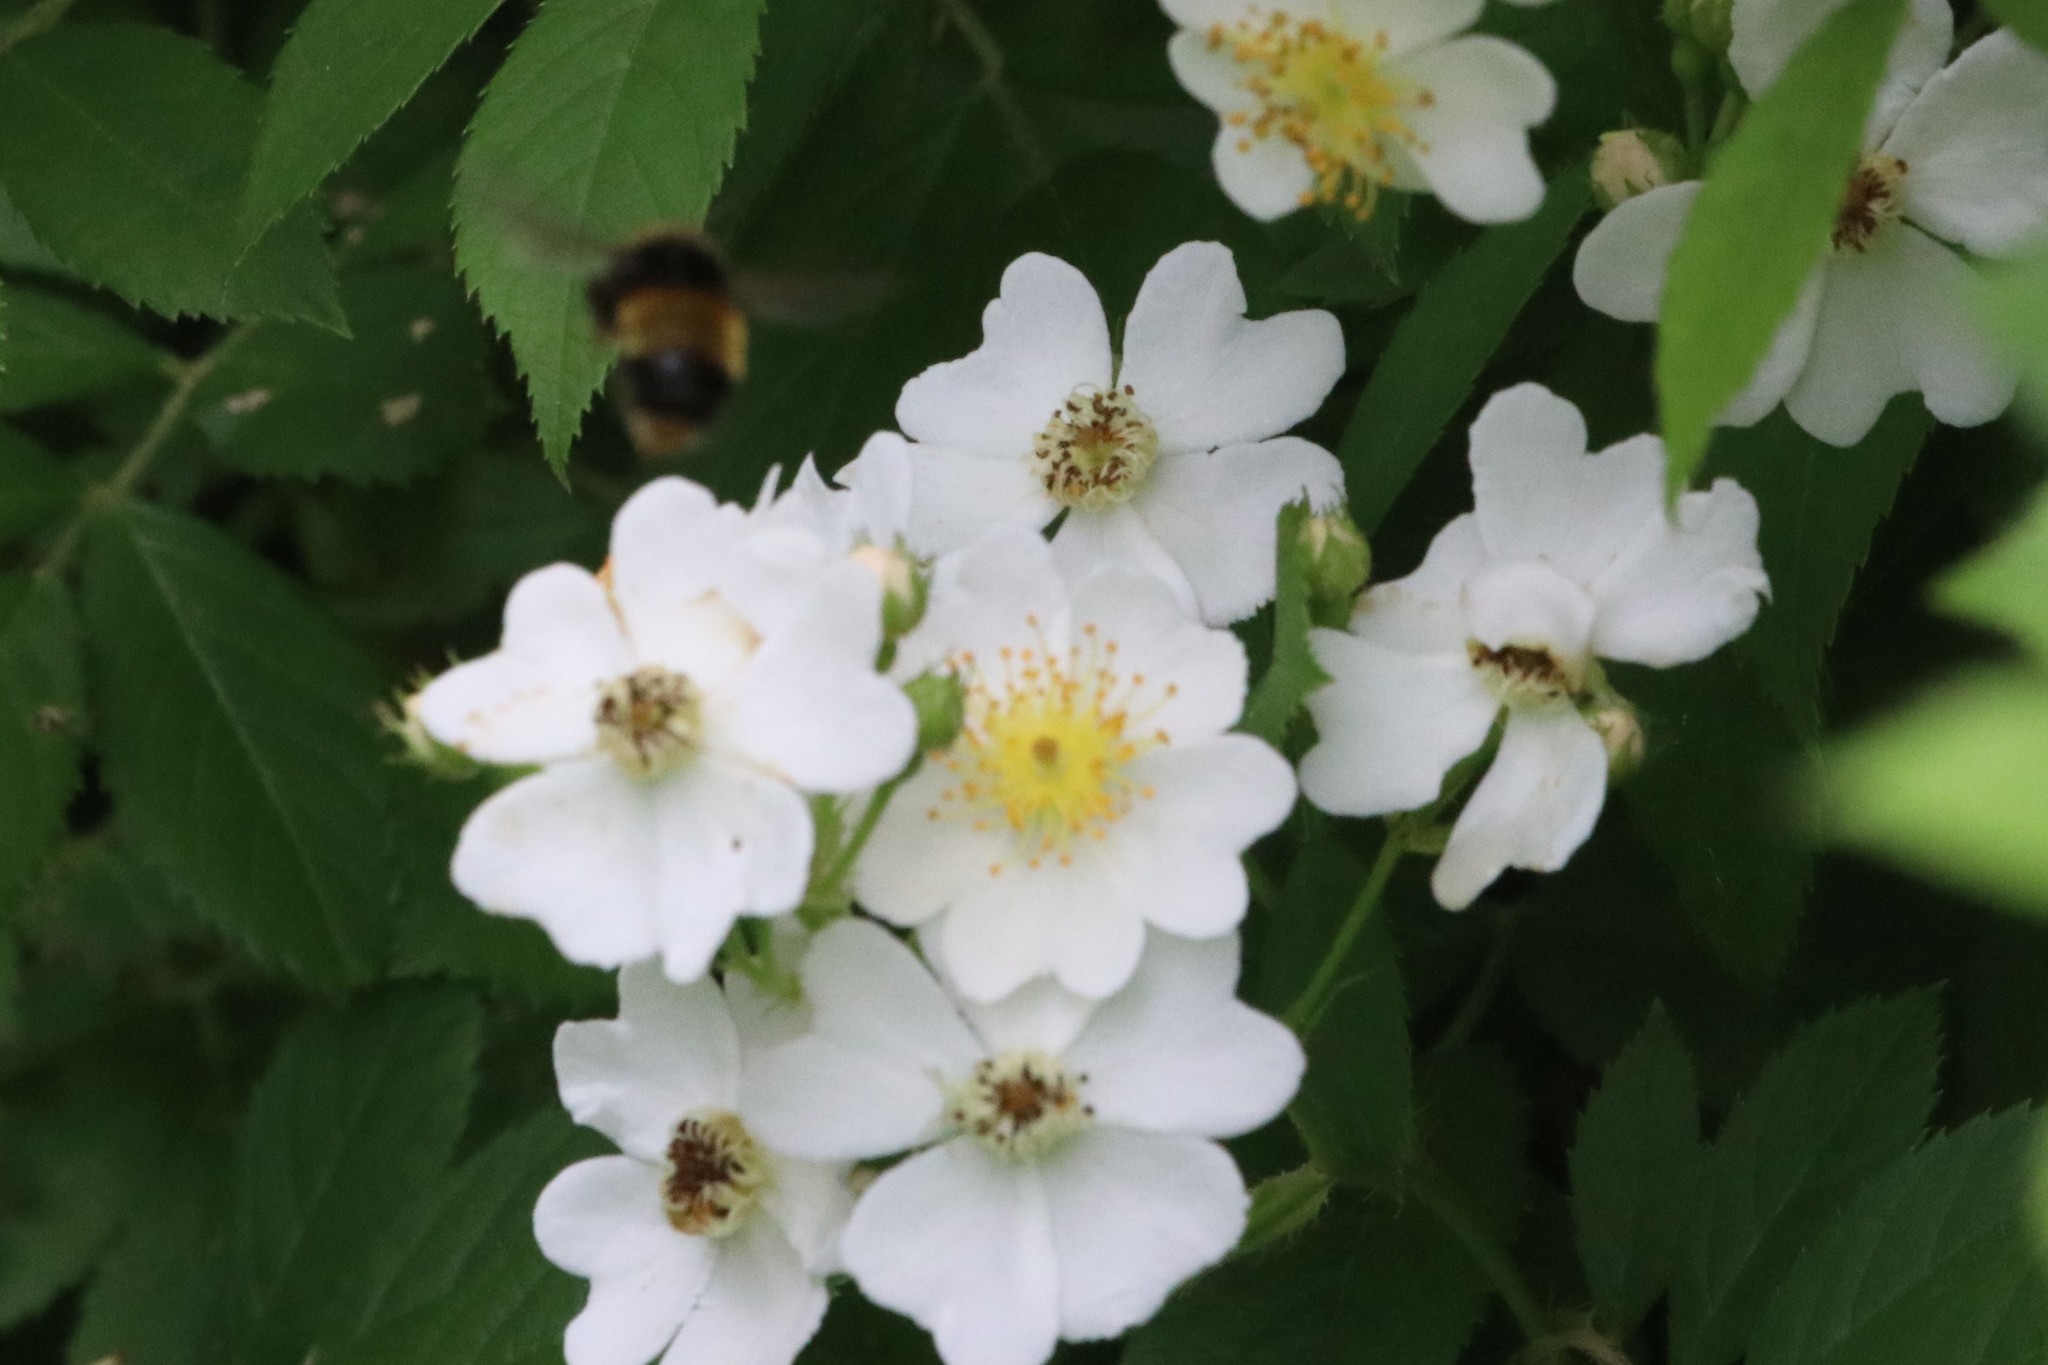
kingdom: Plantae
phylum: Tracheophyta
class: Magnoliopsida
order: Rosales
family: Rosaceae
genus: Rosa
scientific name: Rosa multiflora
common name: Multiflora rose
